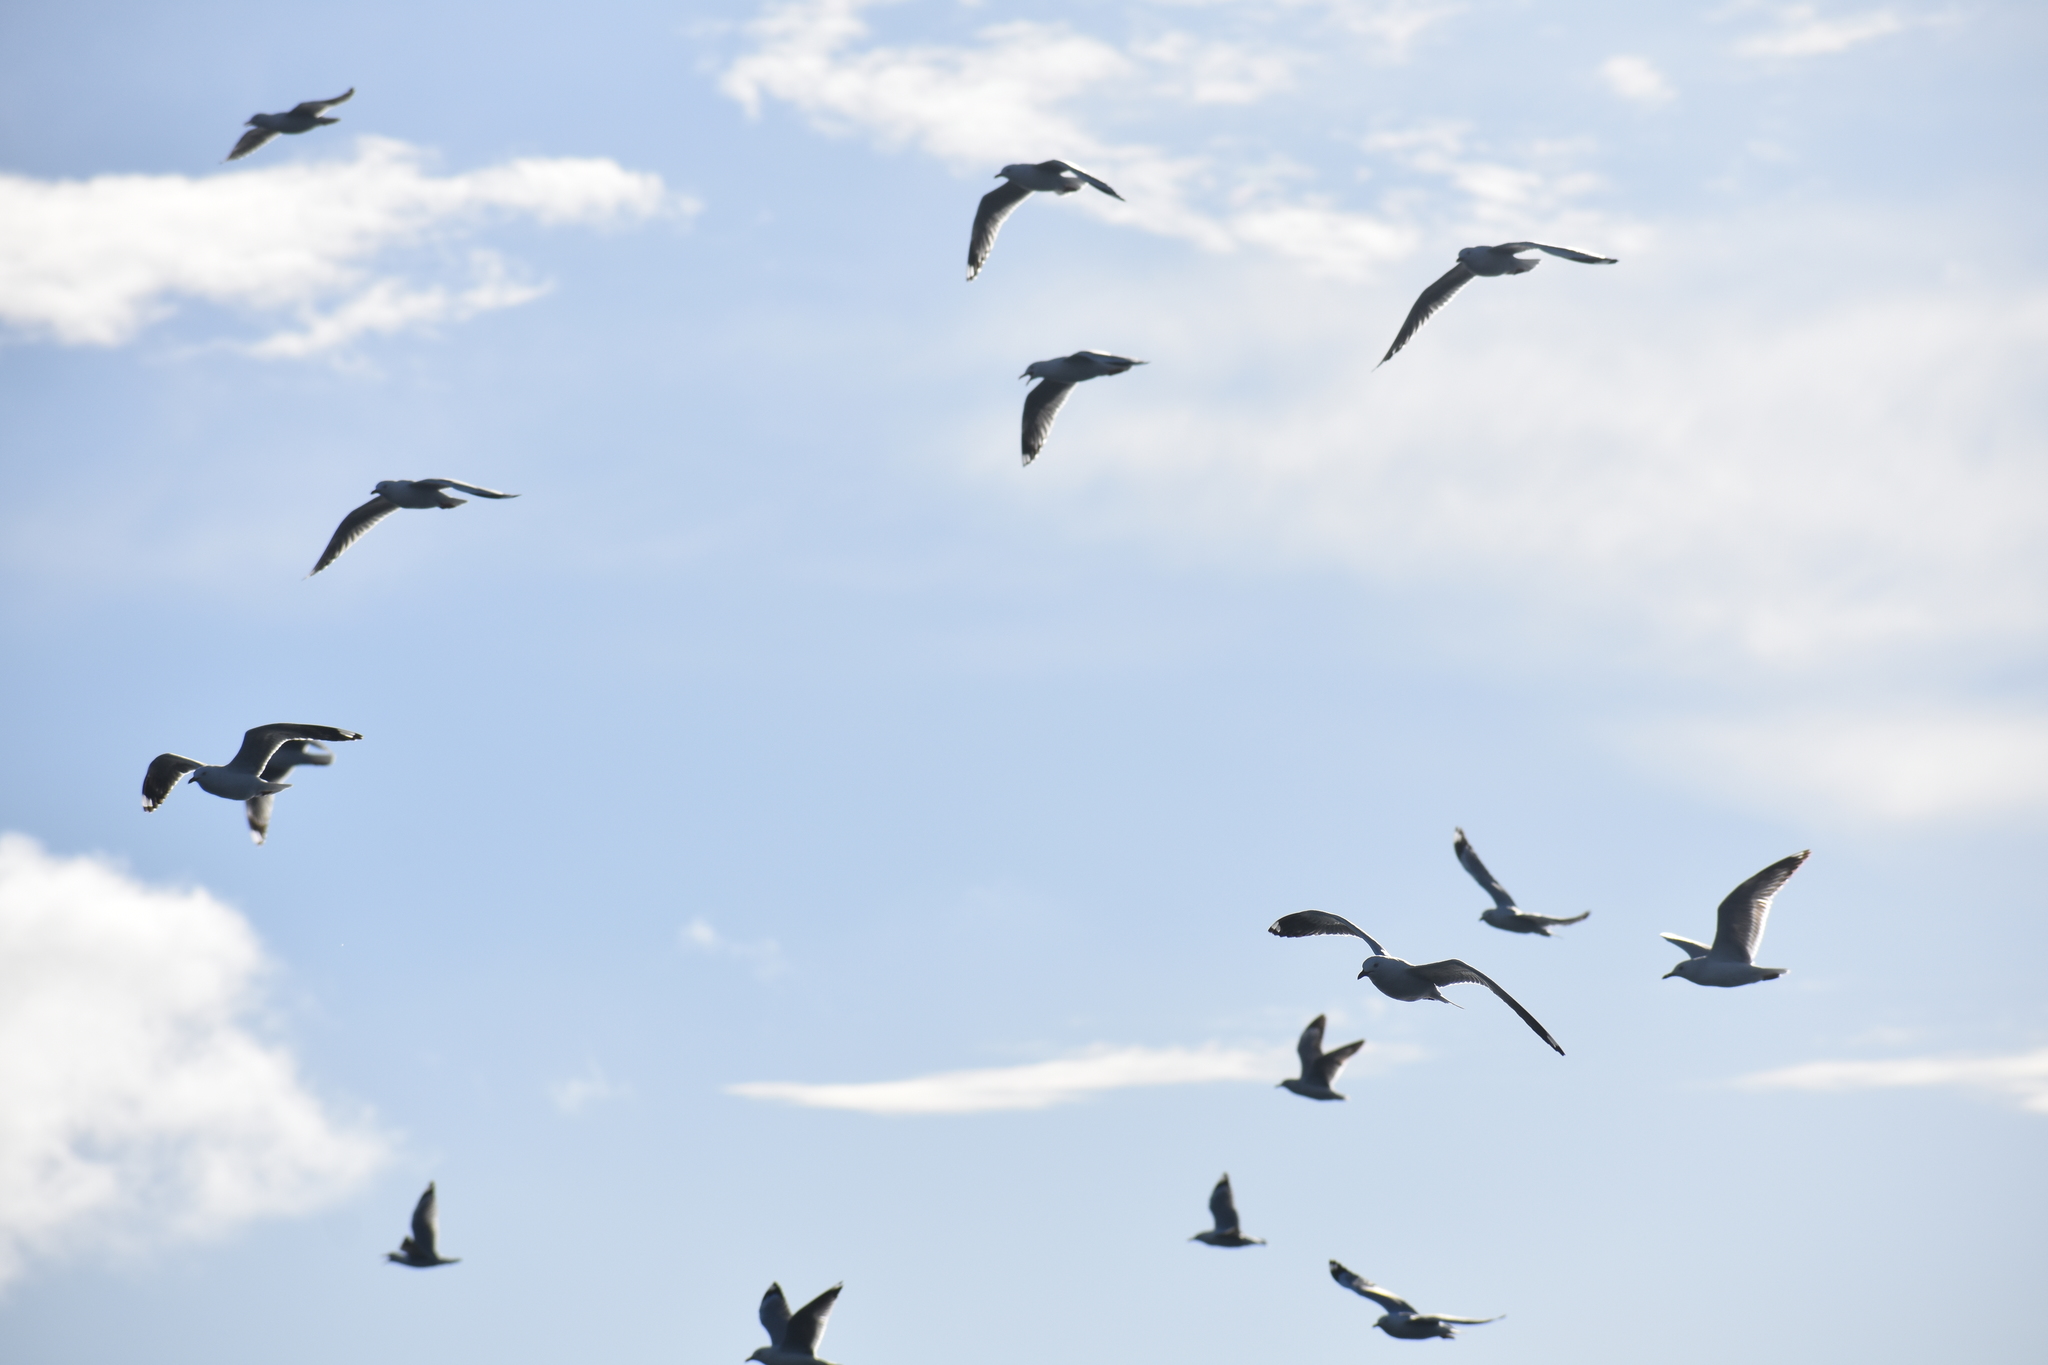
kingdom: Animalia
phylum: Chordata
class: Aves
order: Charadriiformes
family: Laridae
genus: Chroicocephalus
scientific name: Chroicocephalus novaehollandiae
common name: Silver gull
